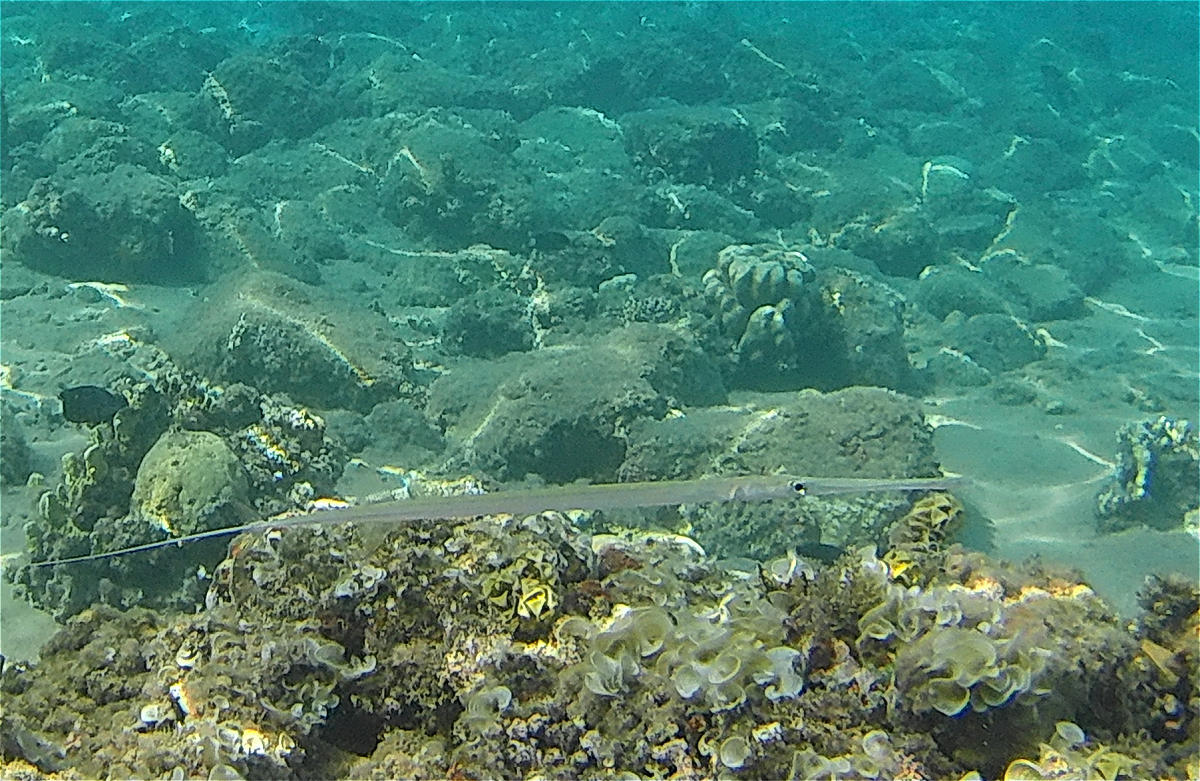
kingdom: Animalia
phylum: Chordata
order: Syngnathiformes
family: Fistulariidae
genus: Fistularia
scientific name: Fistularia commersonii
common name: Bluespotted cornetfish
